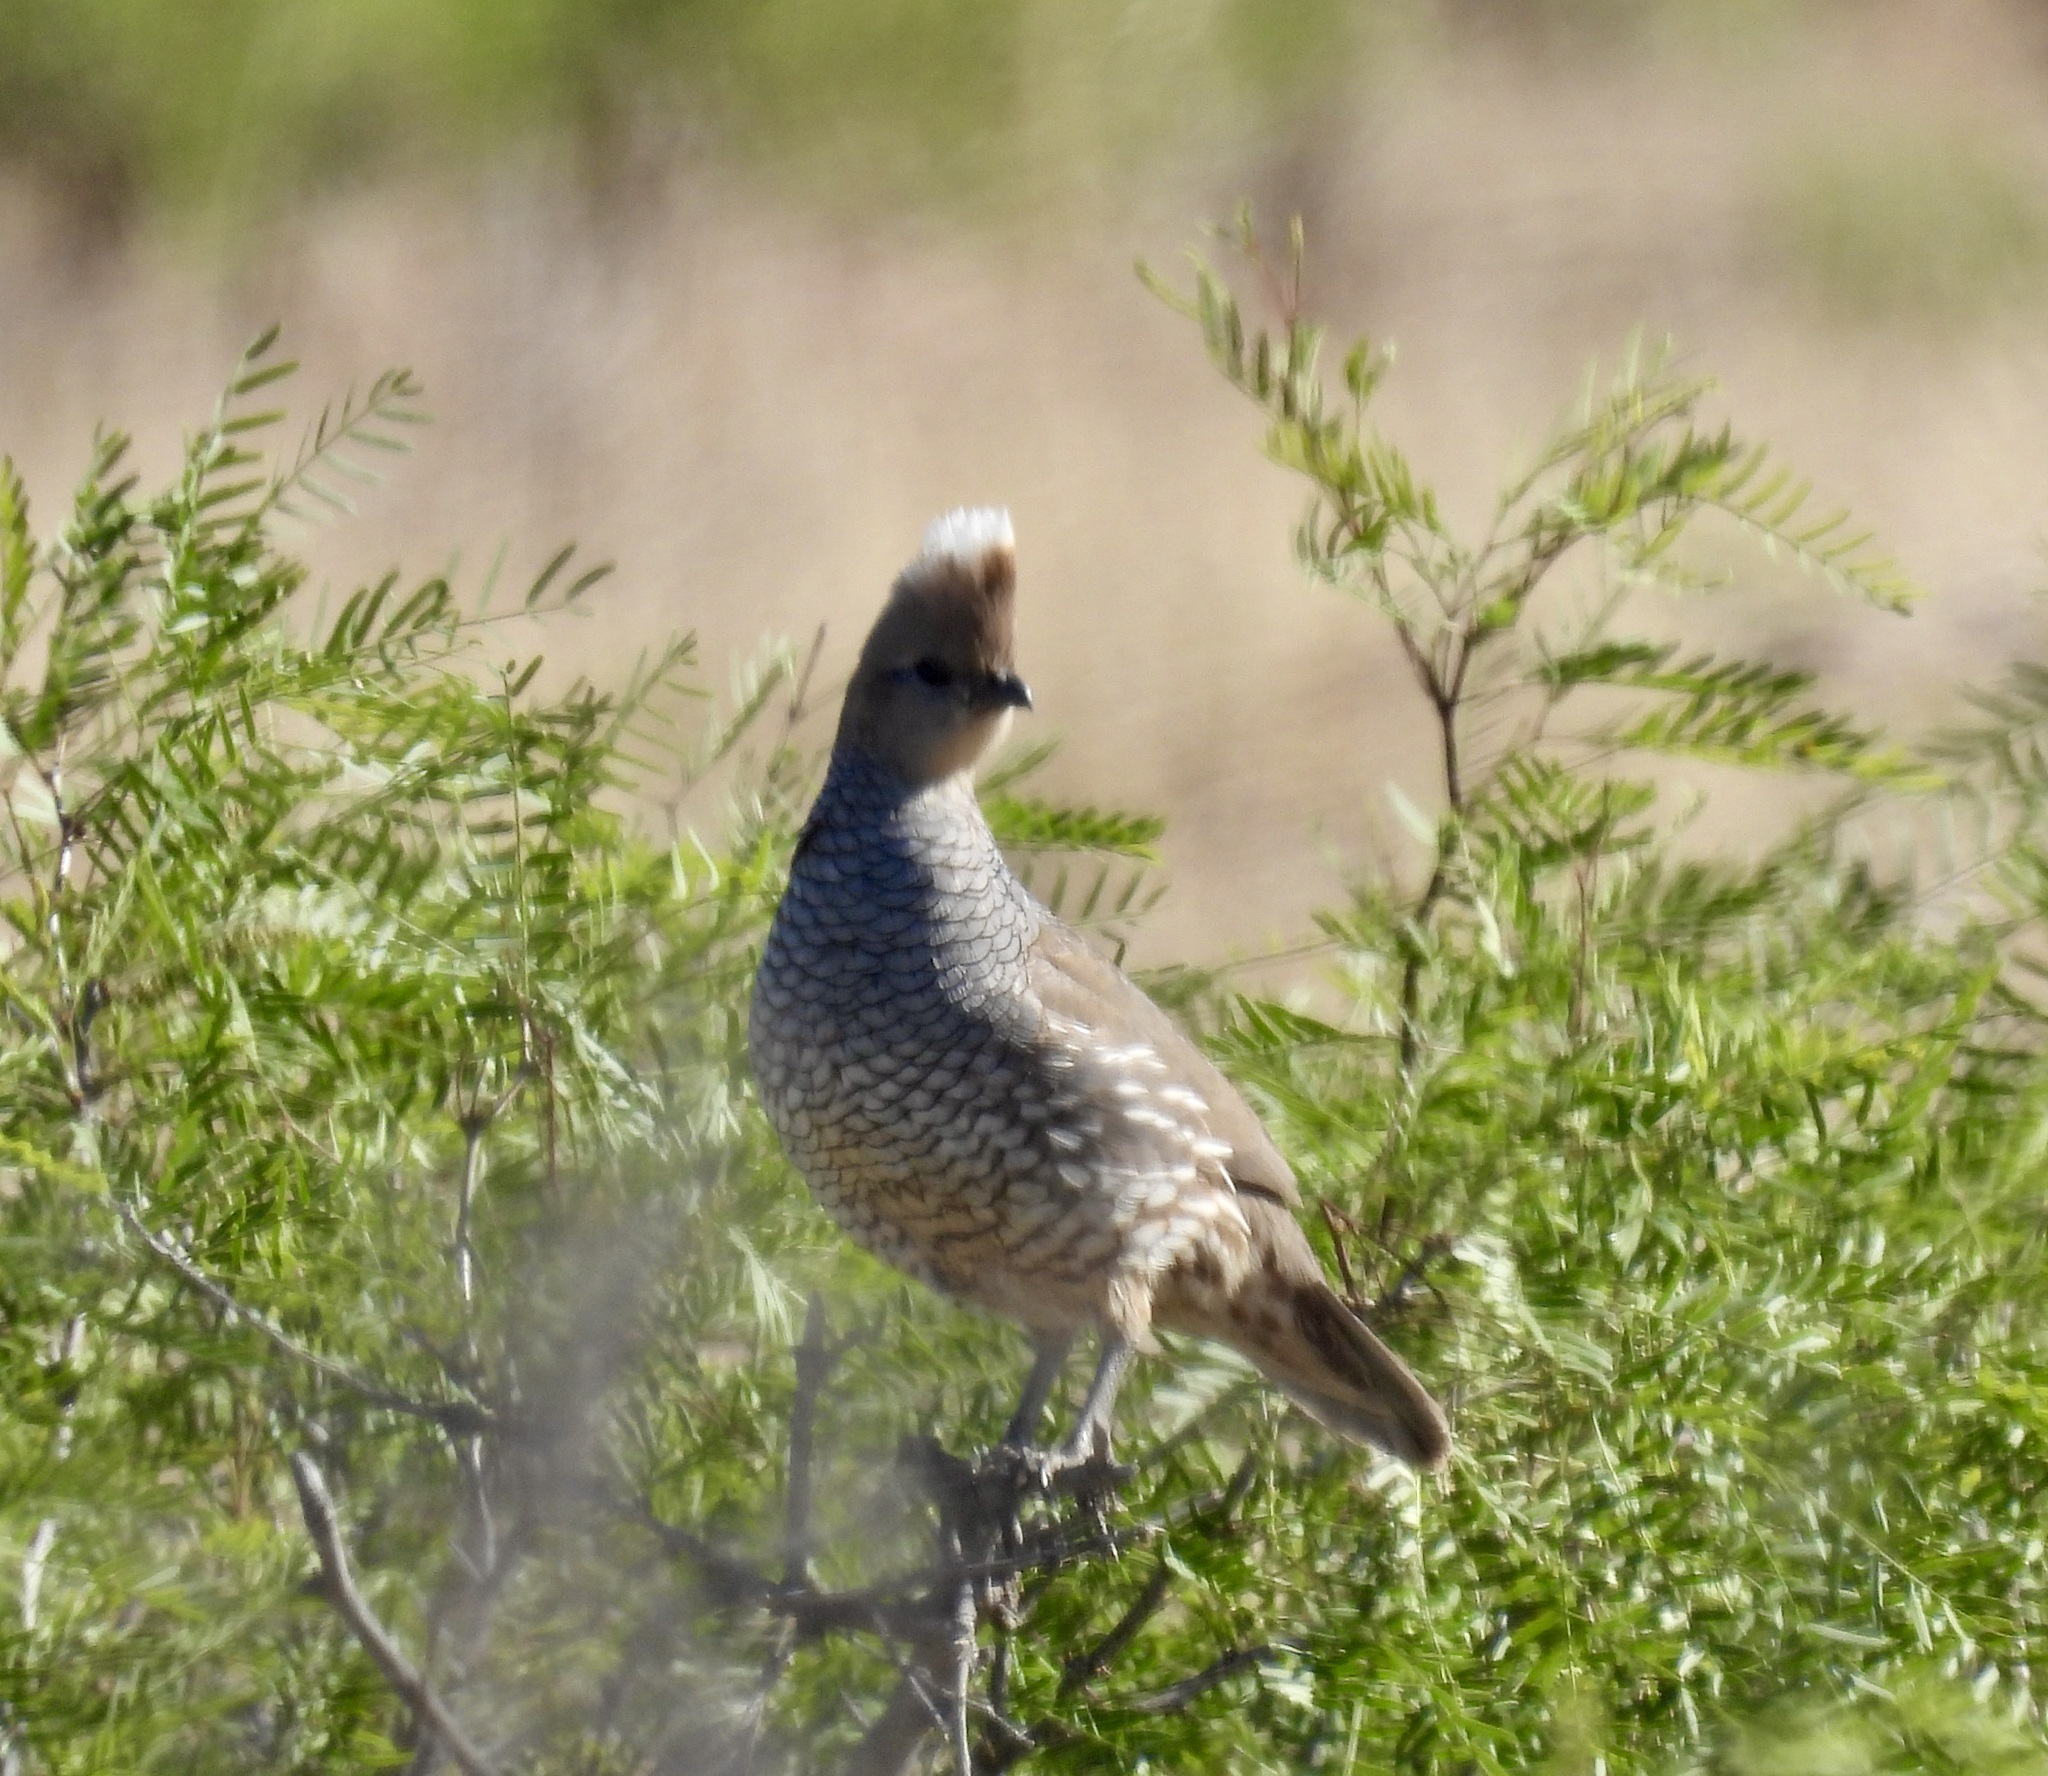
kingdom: Animalia
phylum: Chordata
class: Aves
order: Galliformes
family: Odontophoridae
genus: Callipepla
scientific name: Callipepla squamata
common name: Scaled quail
